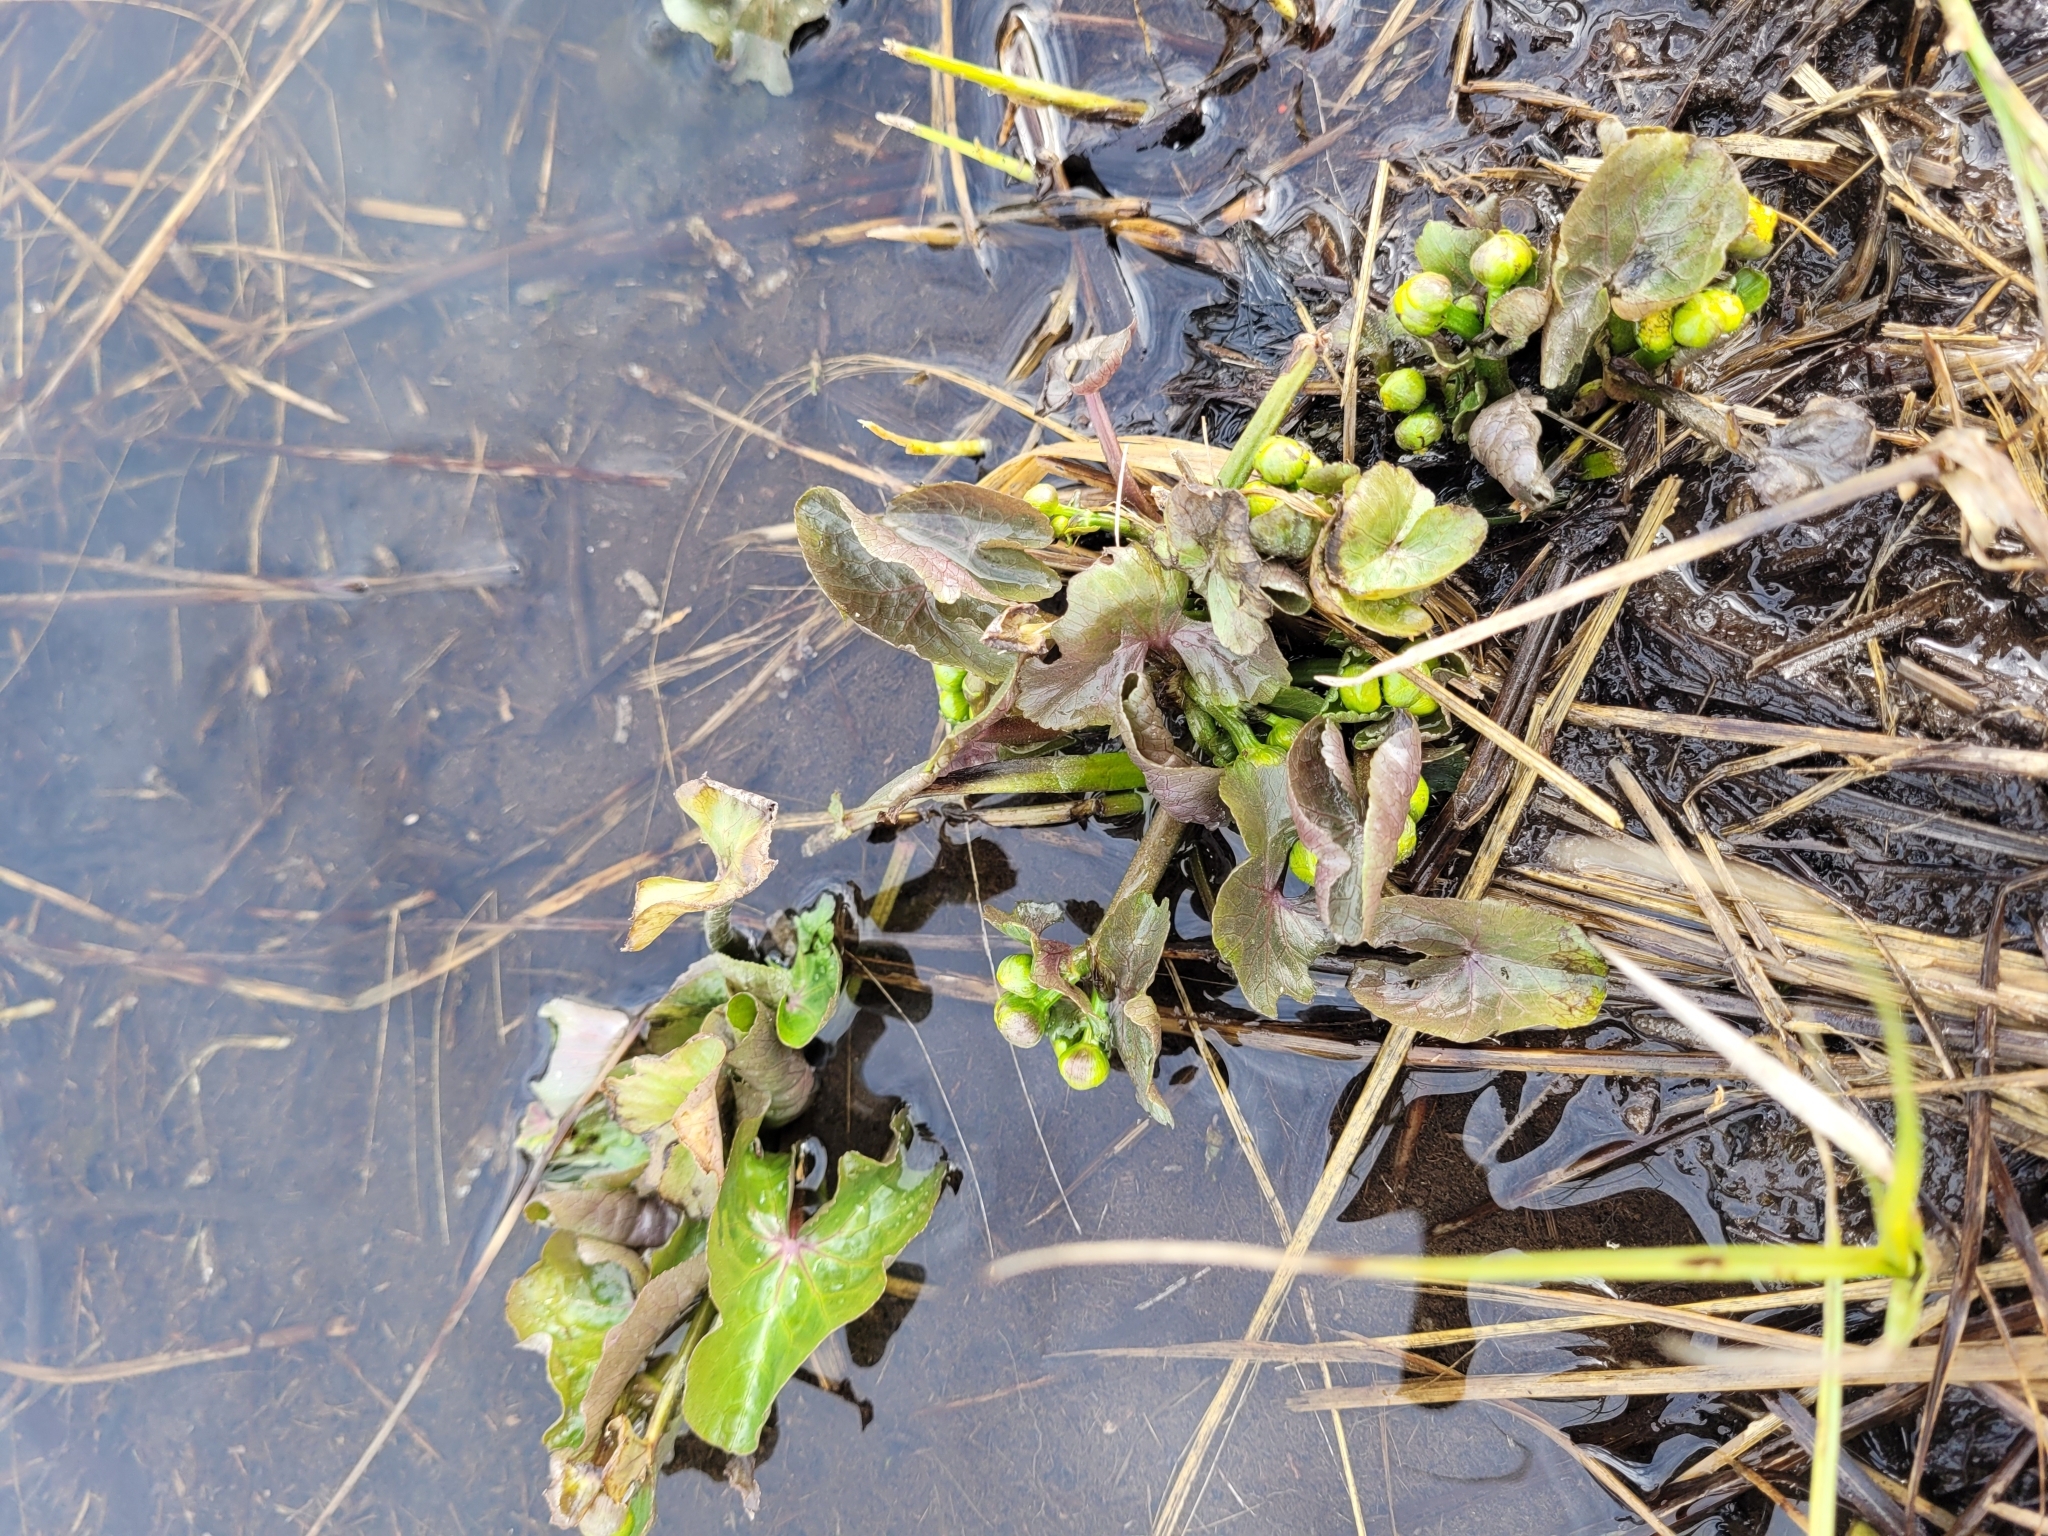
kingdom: Plantae
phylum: Tracheophyta
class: Magnoliopsida
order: Ranunculales
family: Ranunculaceae
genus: Caltha
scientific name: Caltha palustris
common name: Marsh marigold
